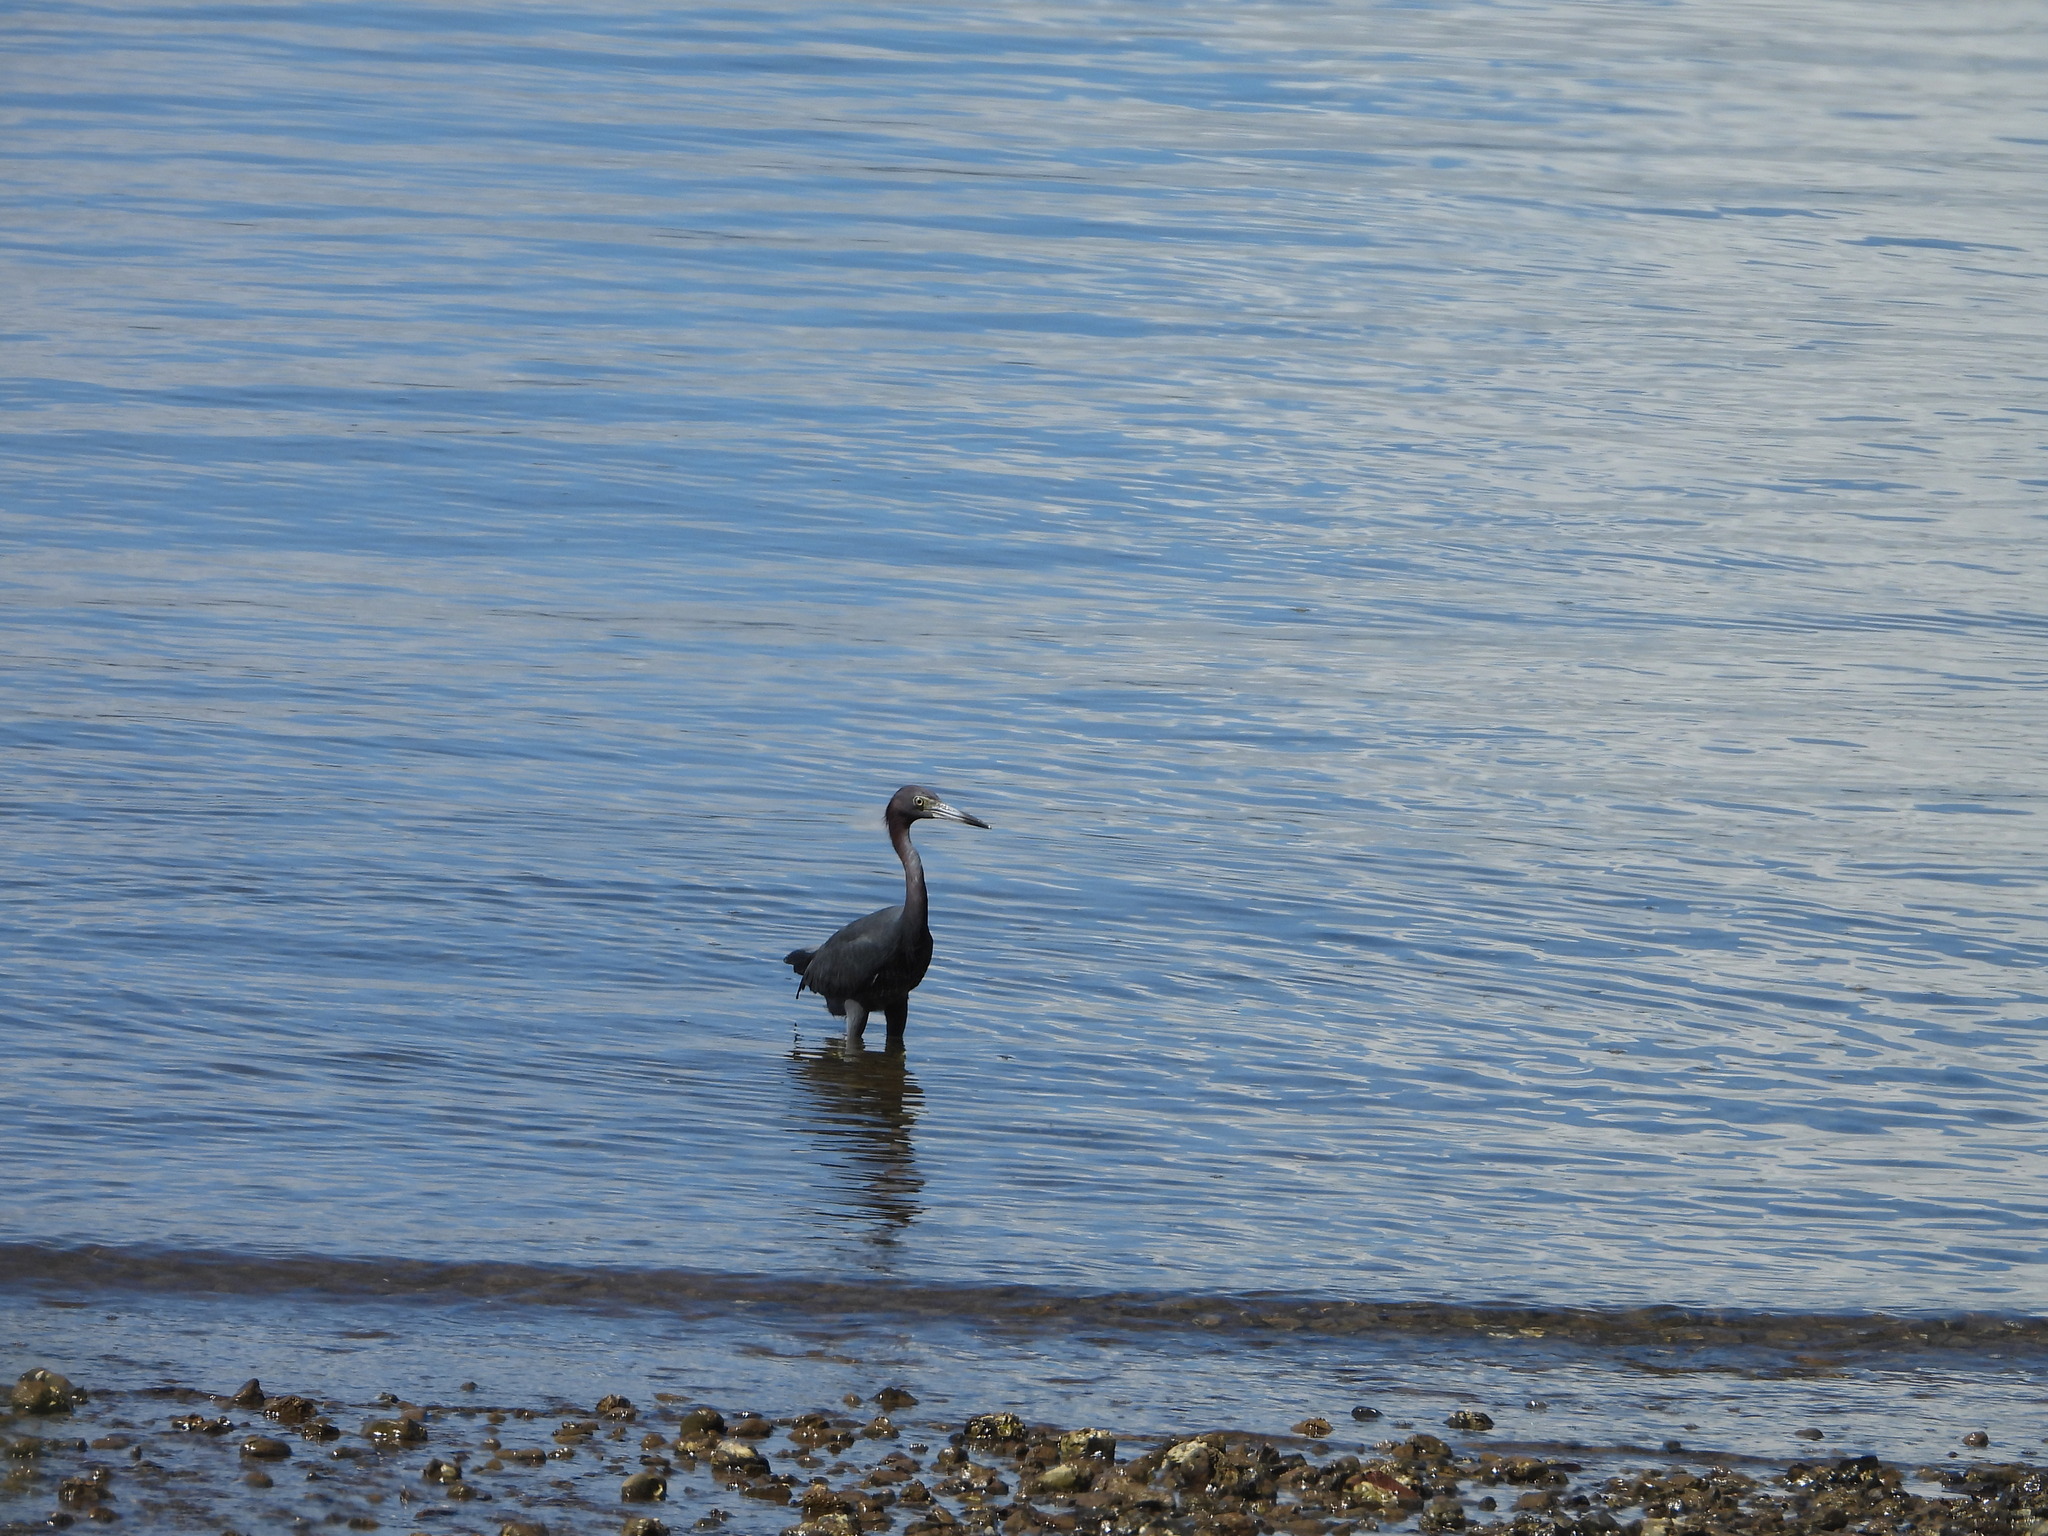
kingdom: Animalia
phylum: Chordata
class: Aves
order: Pelecaniformes
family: Ardeidae
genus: Egretta
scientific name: Egretta caerulea
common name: Little blue heron
